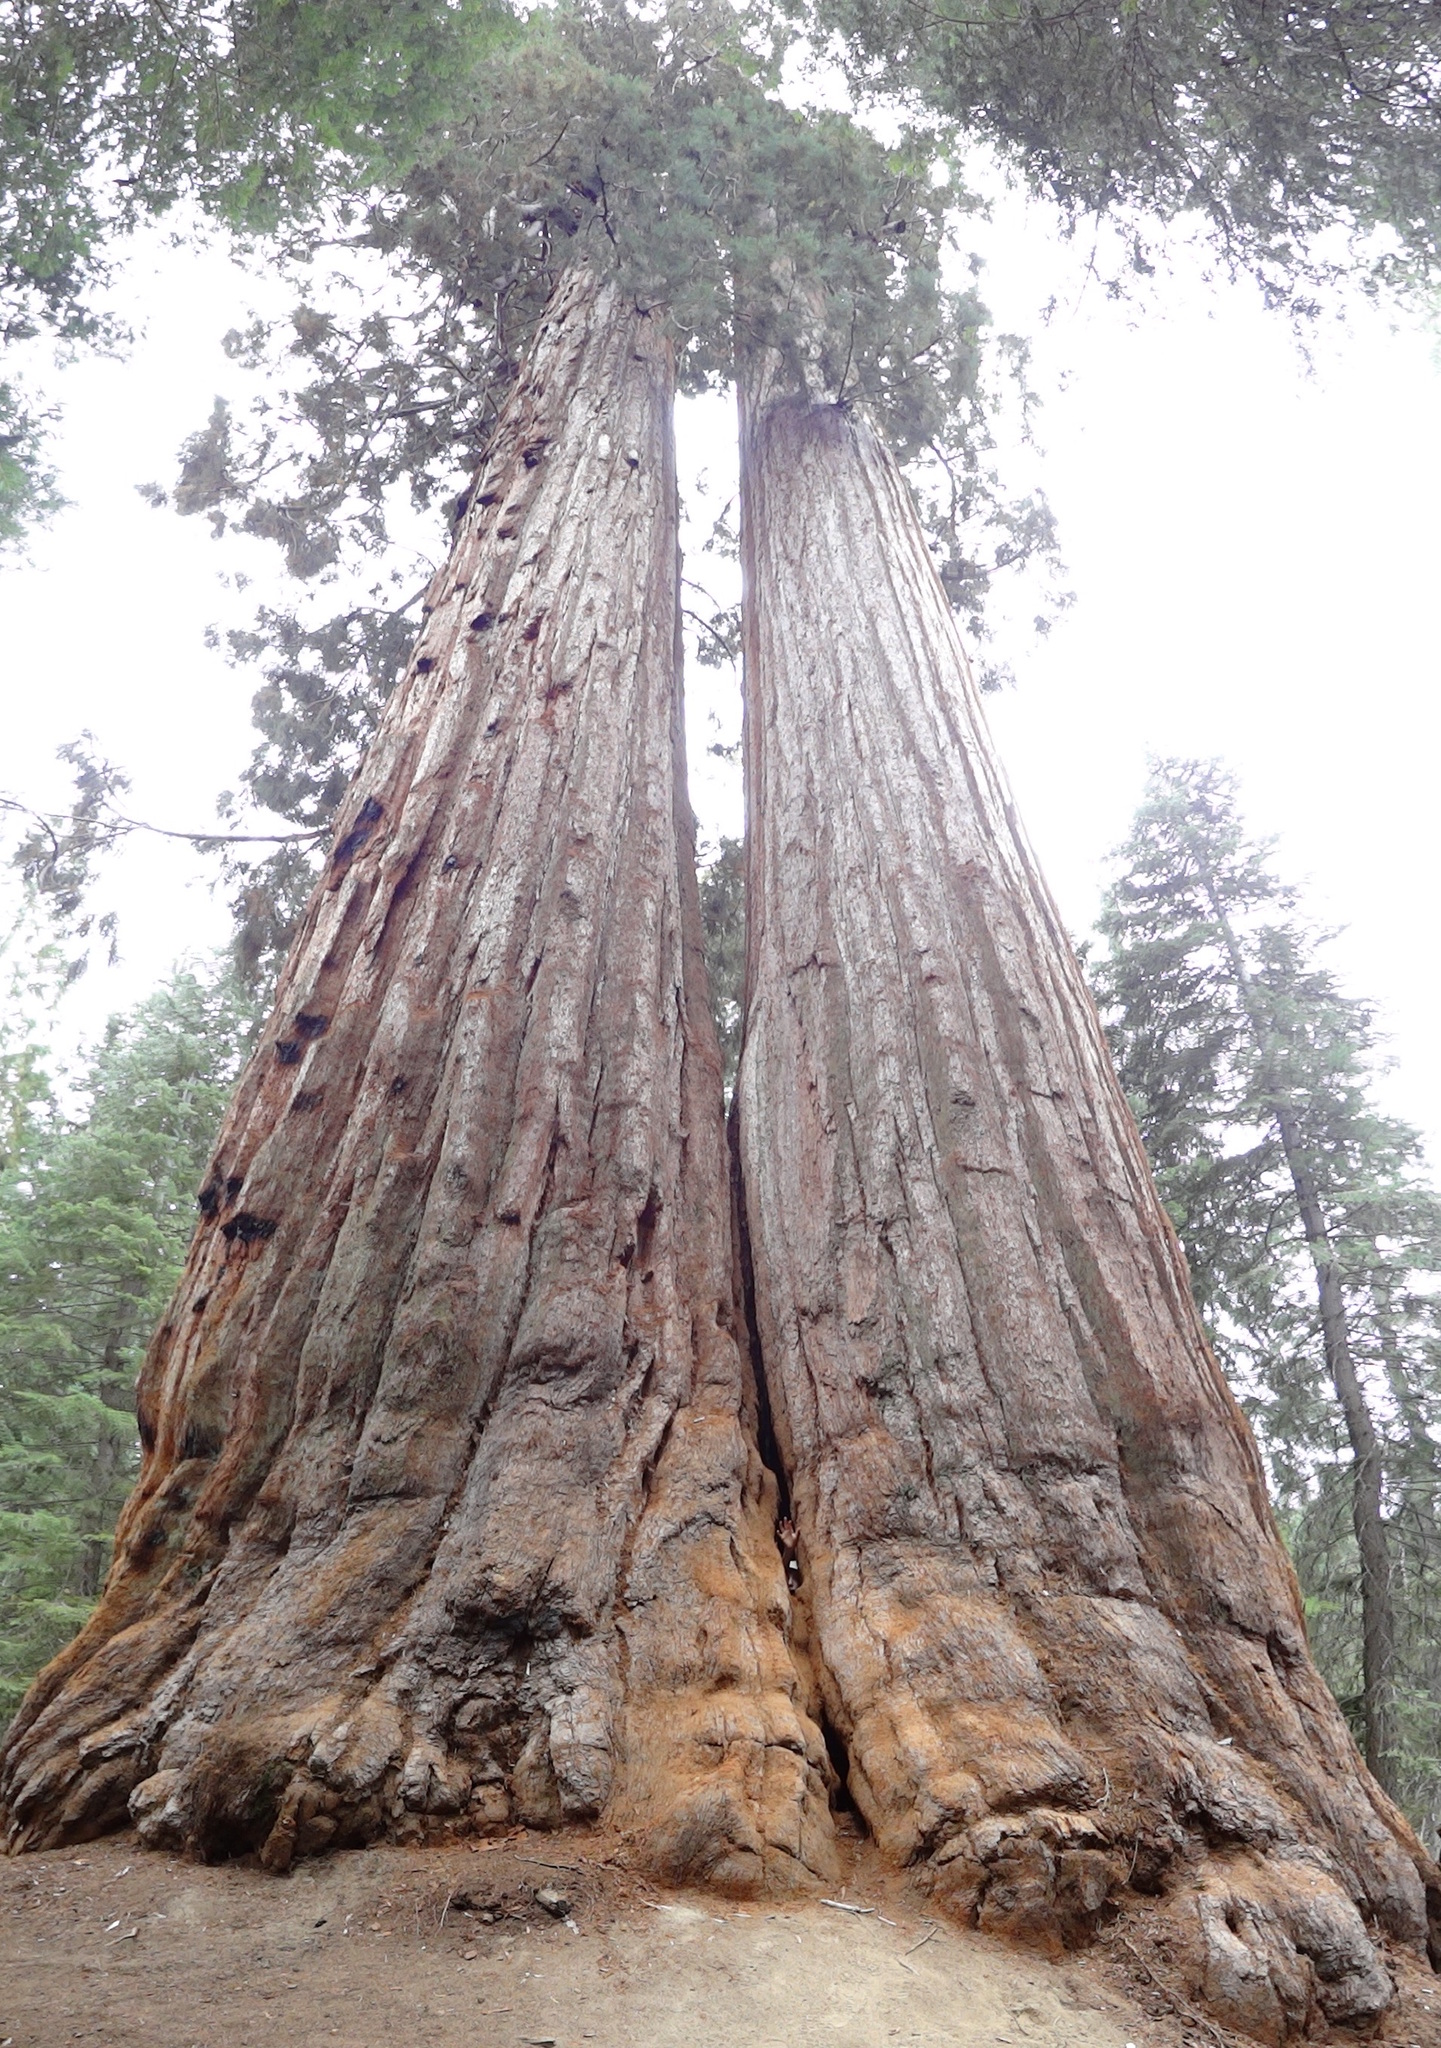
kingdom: Plantae
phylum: Tracheophyta
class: Pinopsida
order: Pinales
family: Cupressaceae
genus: Sequoiadendron
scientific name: Sequoiadendron giganteum
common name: Wellingtonia
